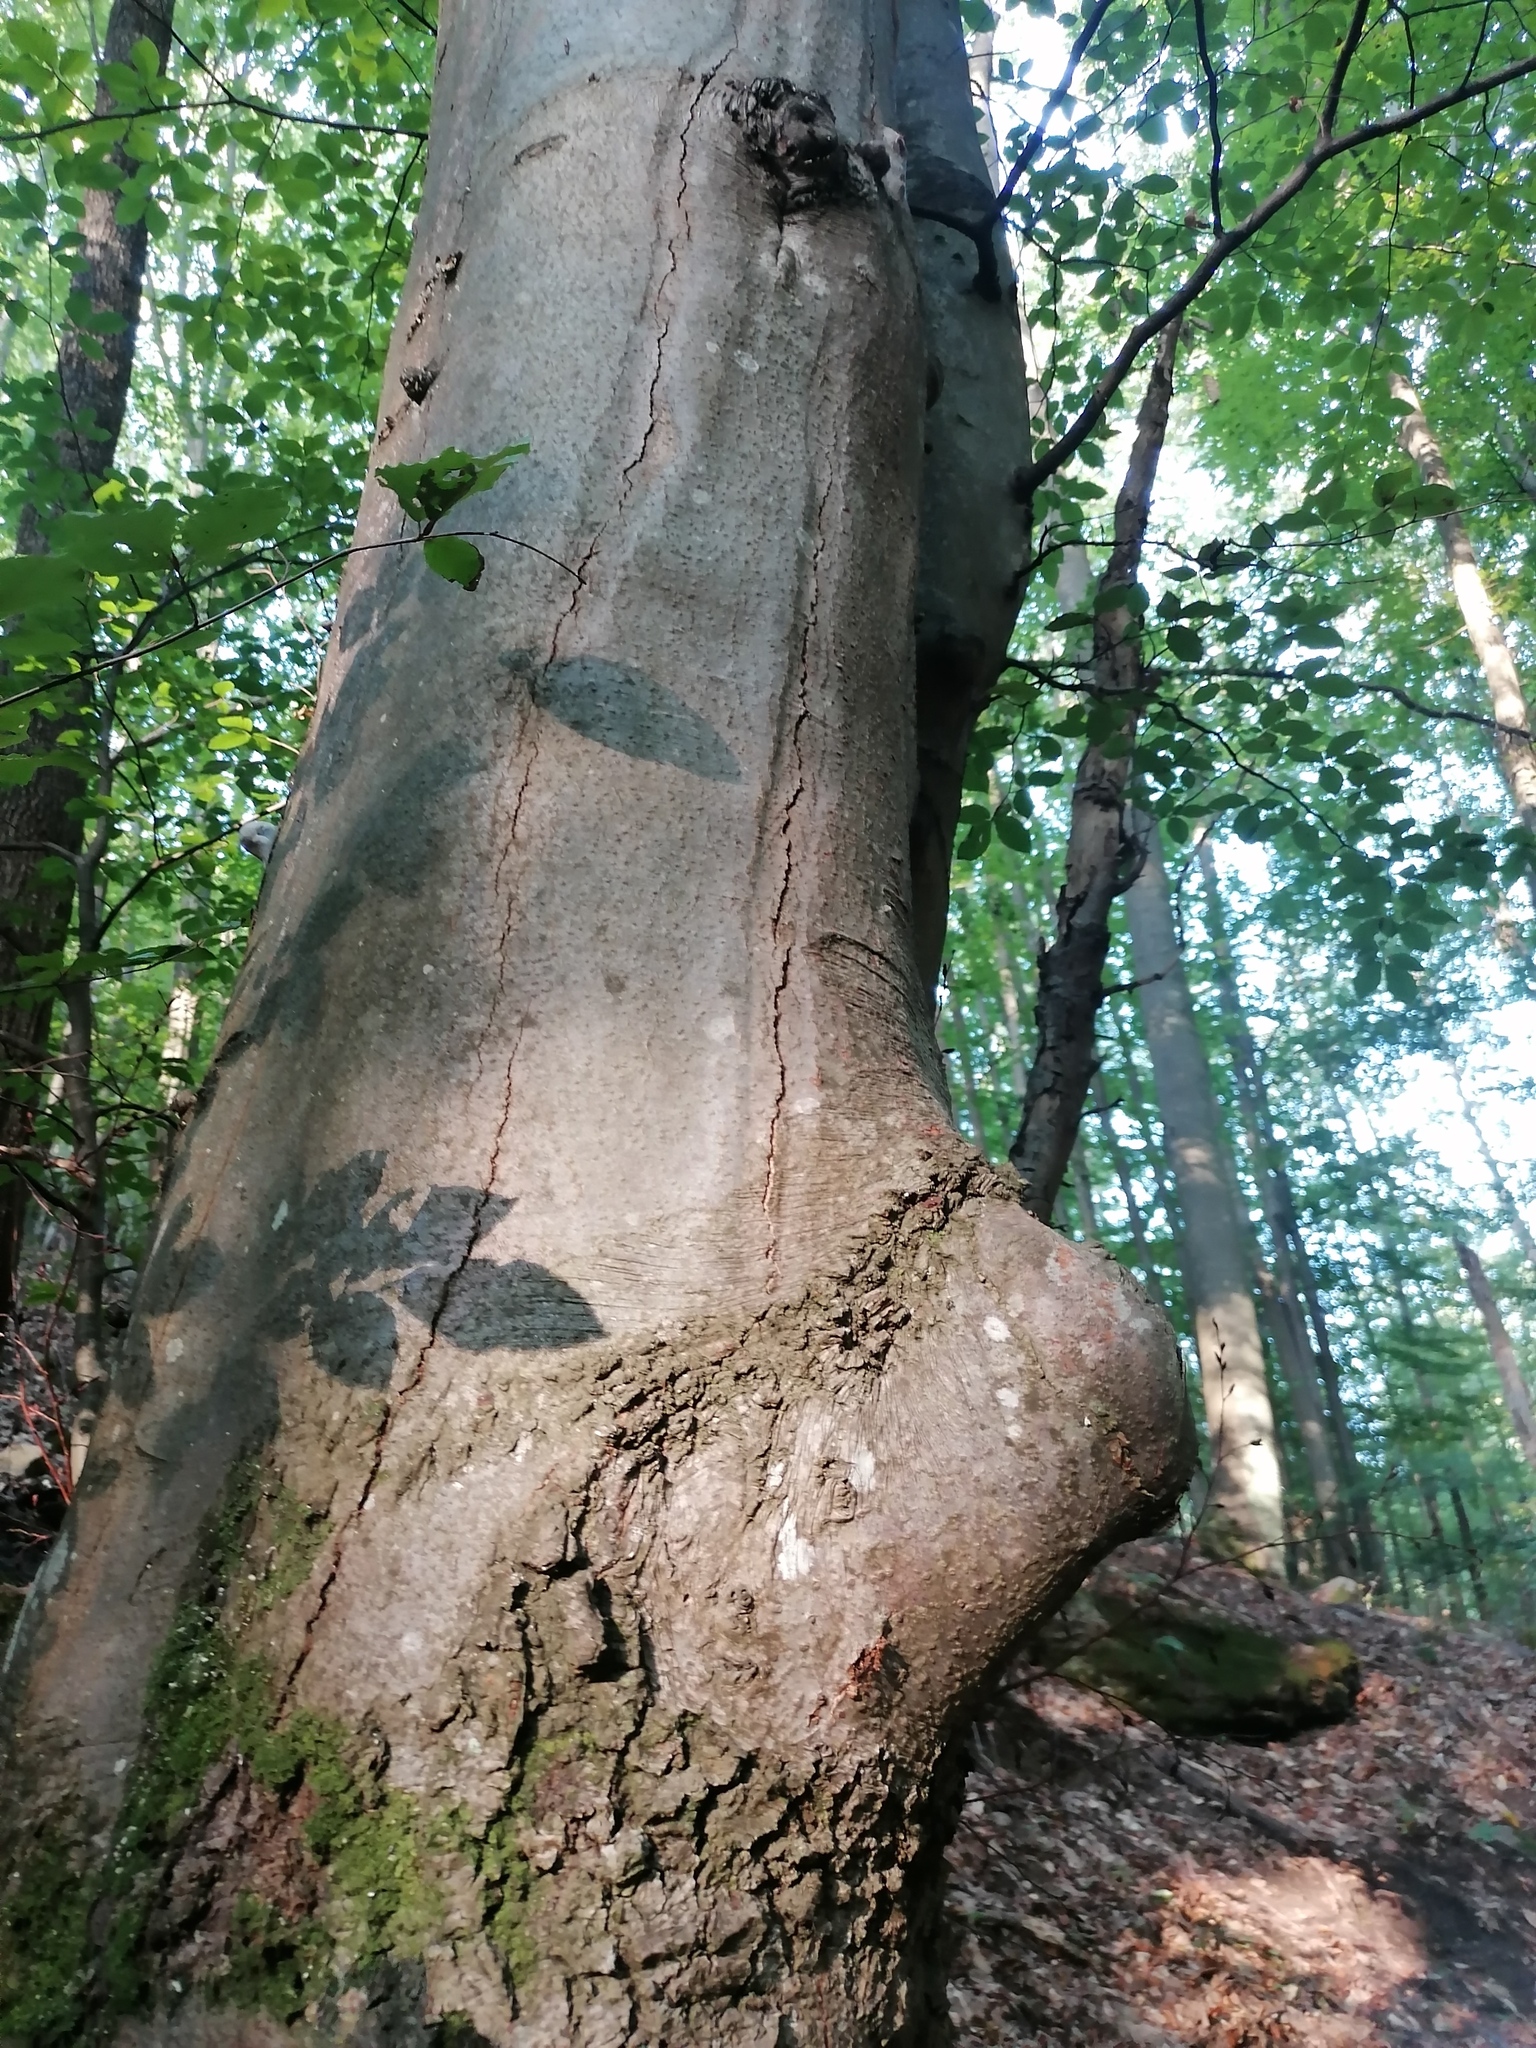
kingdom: Plantae
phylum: Tracheophyta
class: Magnoliopsida
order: Fagales
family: Fagaceae
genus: Fagus
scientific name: Fagus sylvatica
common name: Beech
